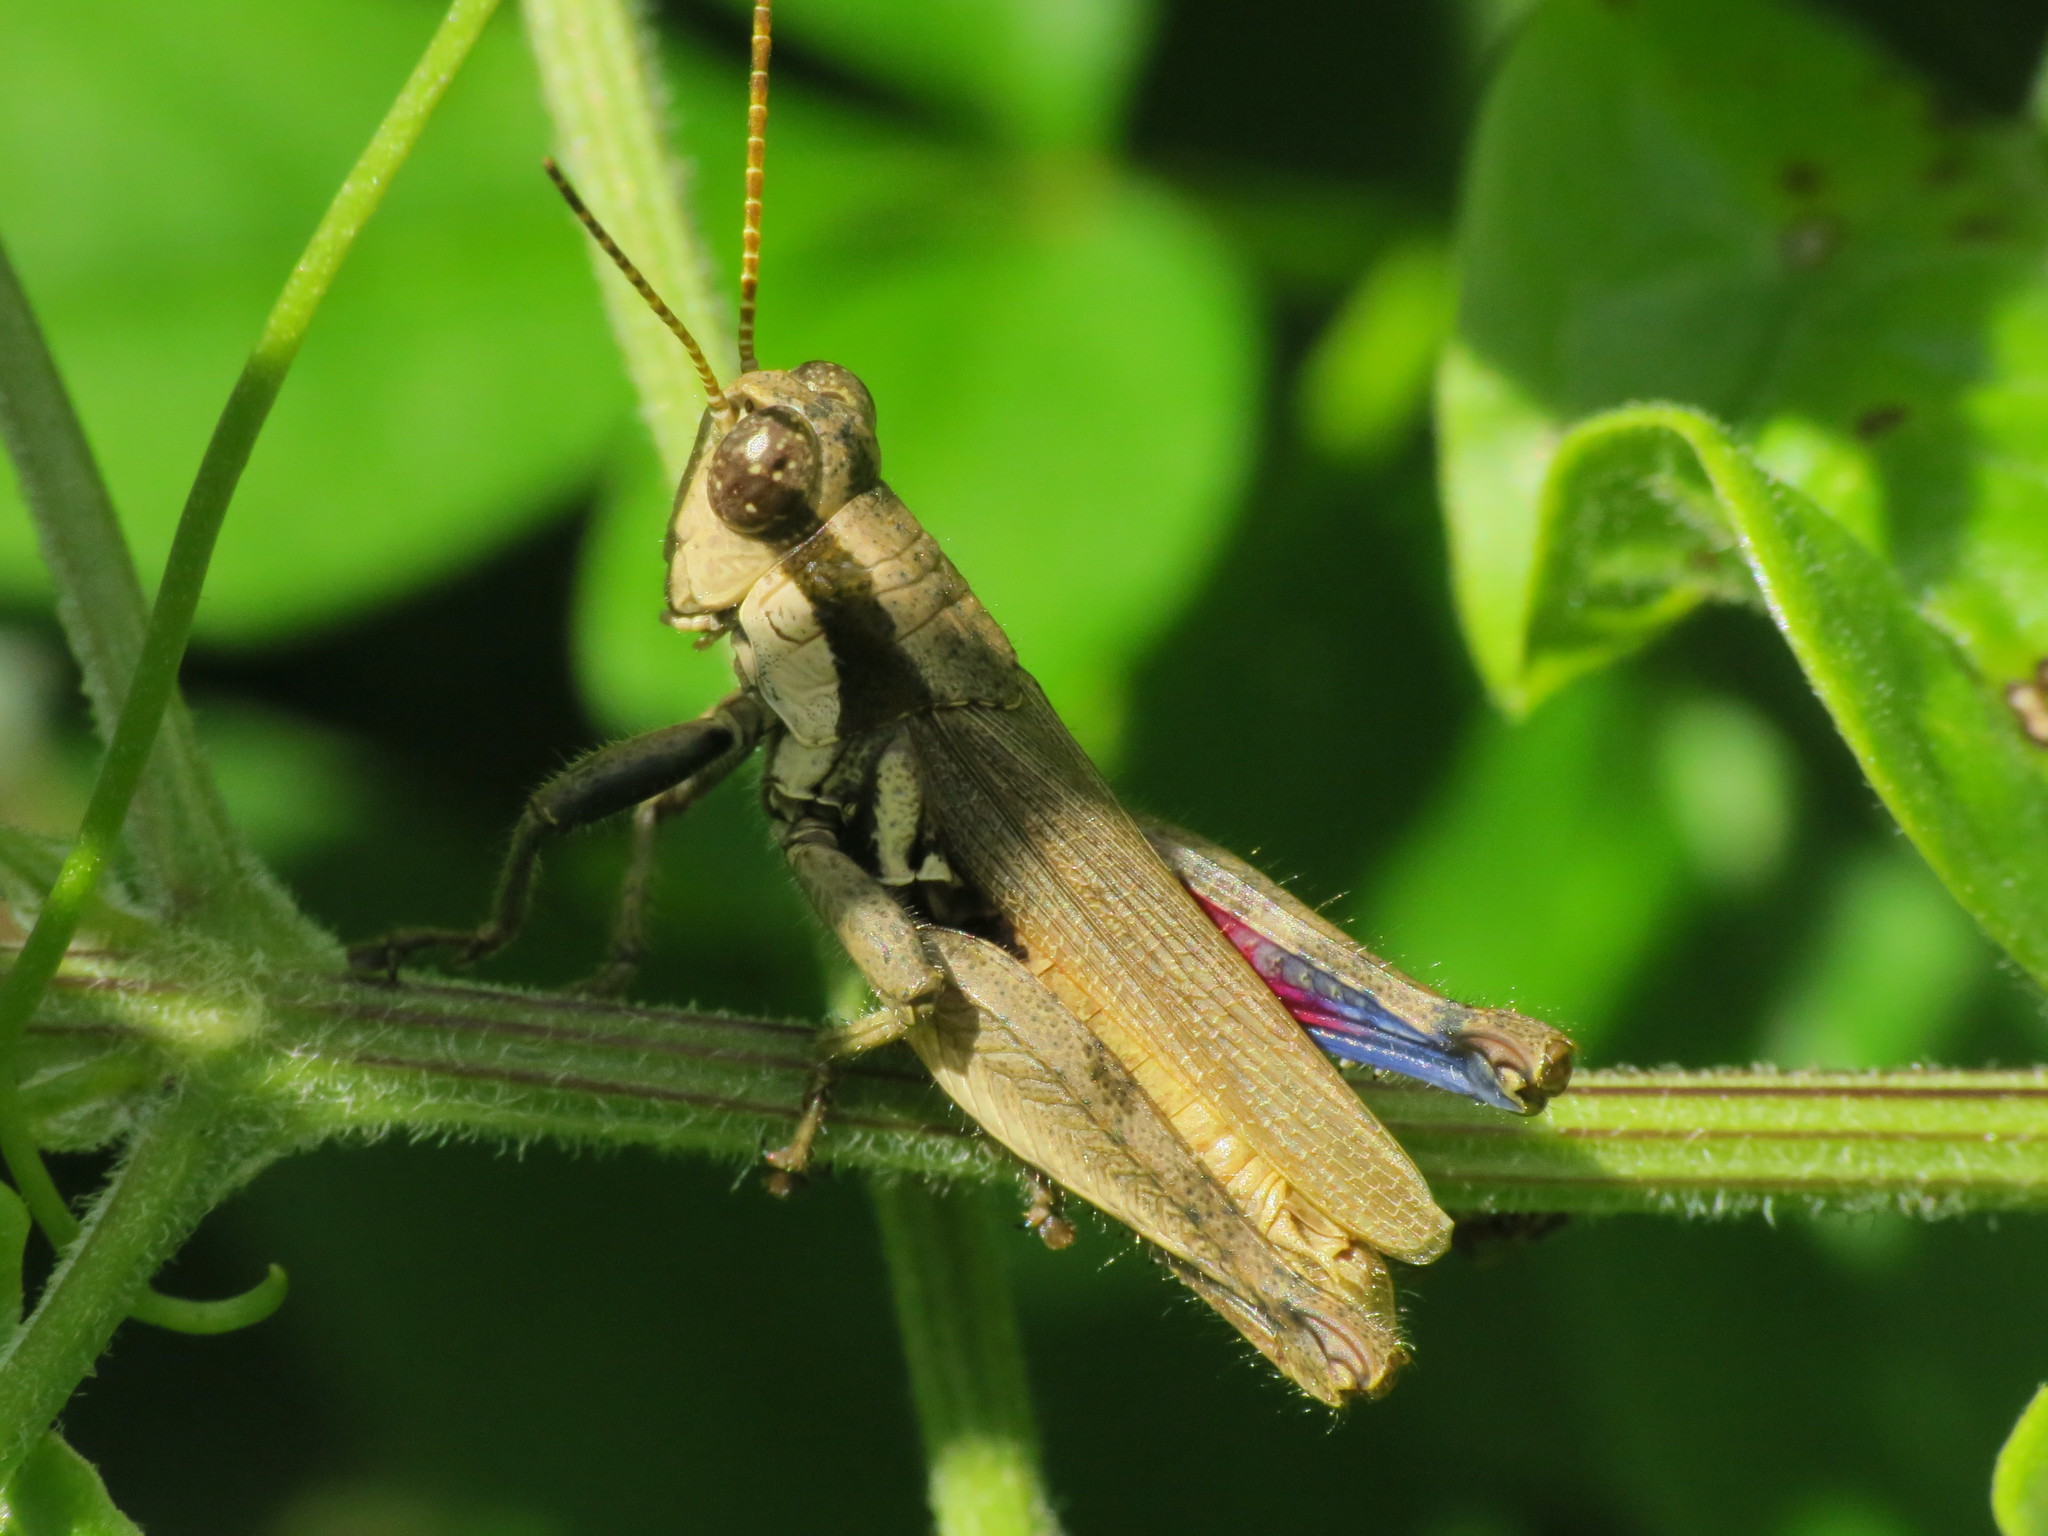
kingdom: Animalia
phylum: Arthropoda
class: Insecta
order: Orthoptera
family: Acrididae
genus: Ronderosia
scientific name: Ronderosia bergii
